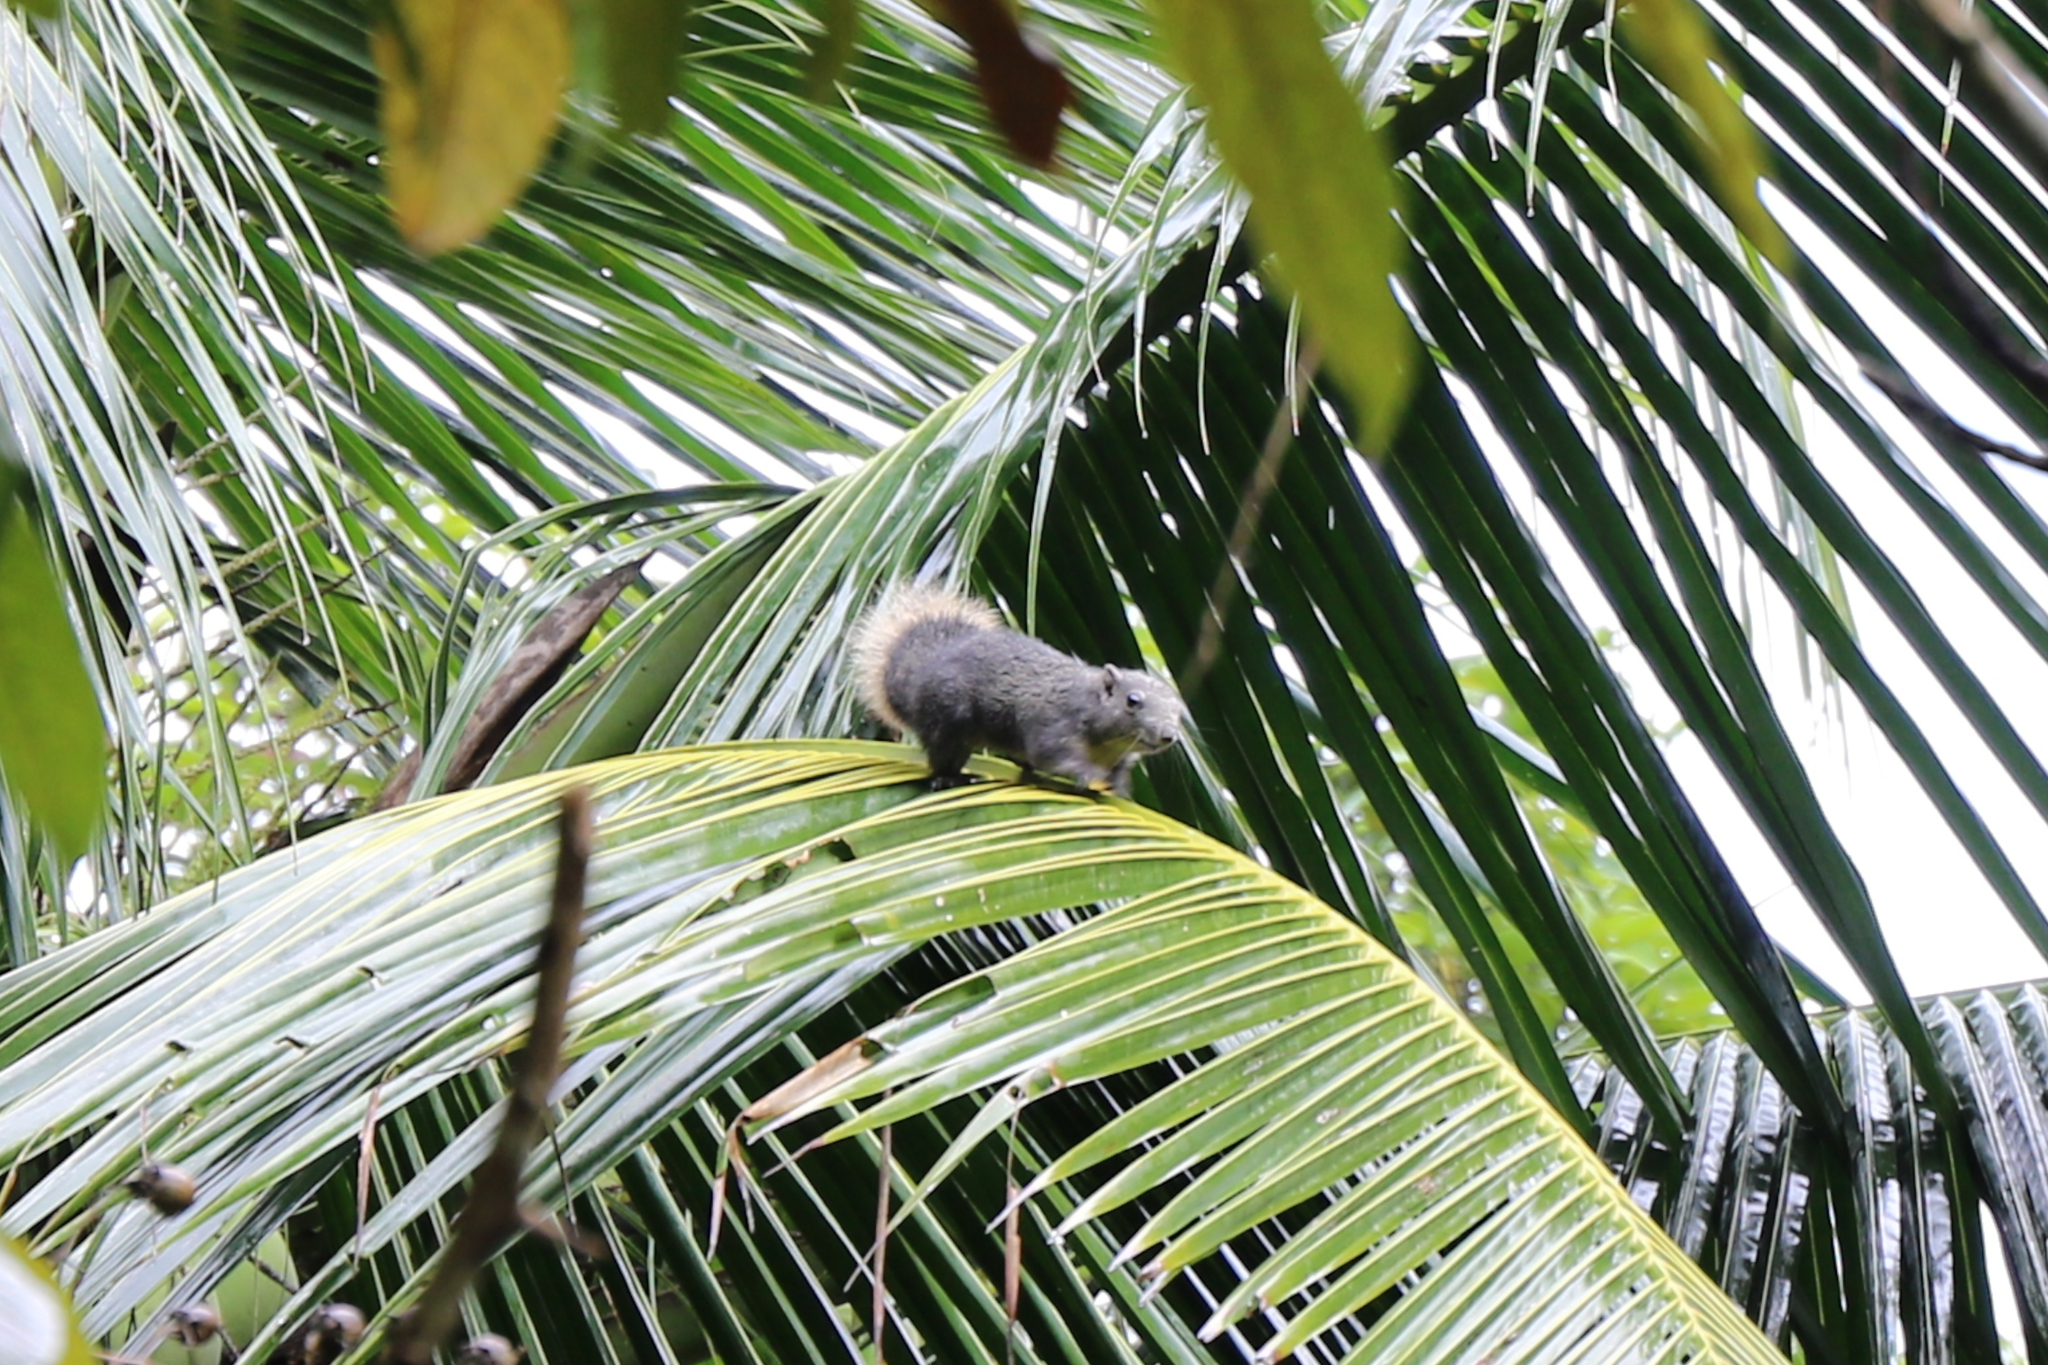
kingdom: Animalia
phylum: Chordata
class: Mammalia
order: Rodentia
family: Sciuridae
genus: Callosciurus
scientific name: Callosciurus finlaysonii
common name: Finlayson's squirrel
